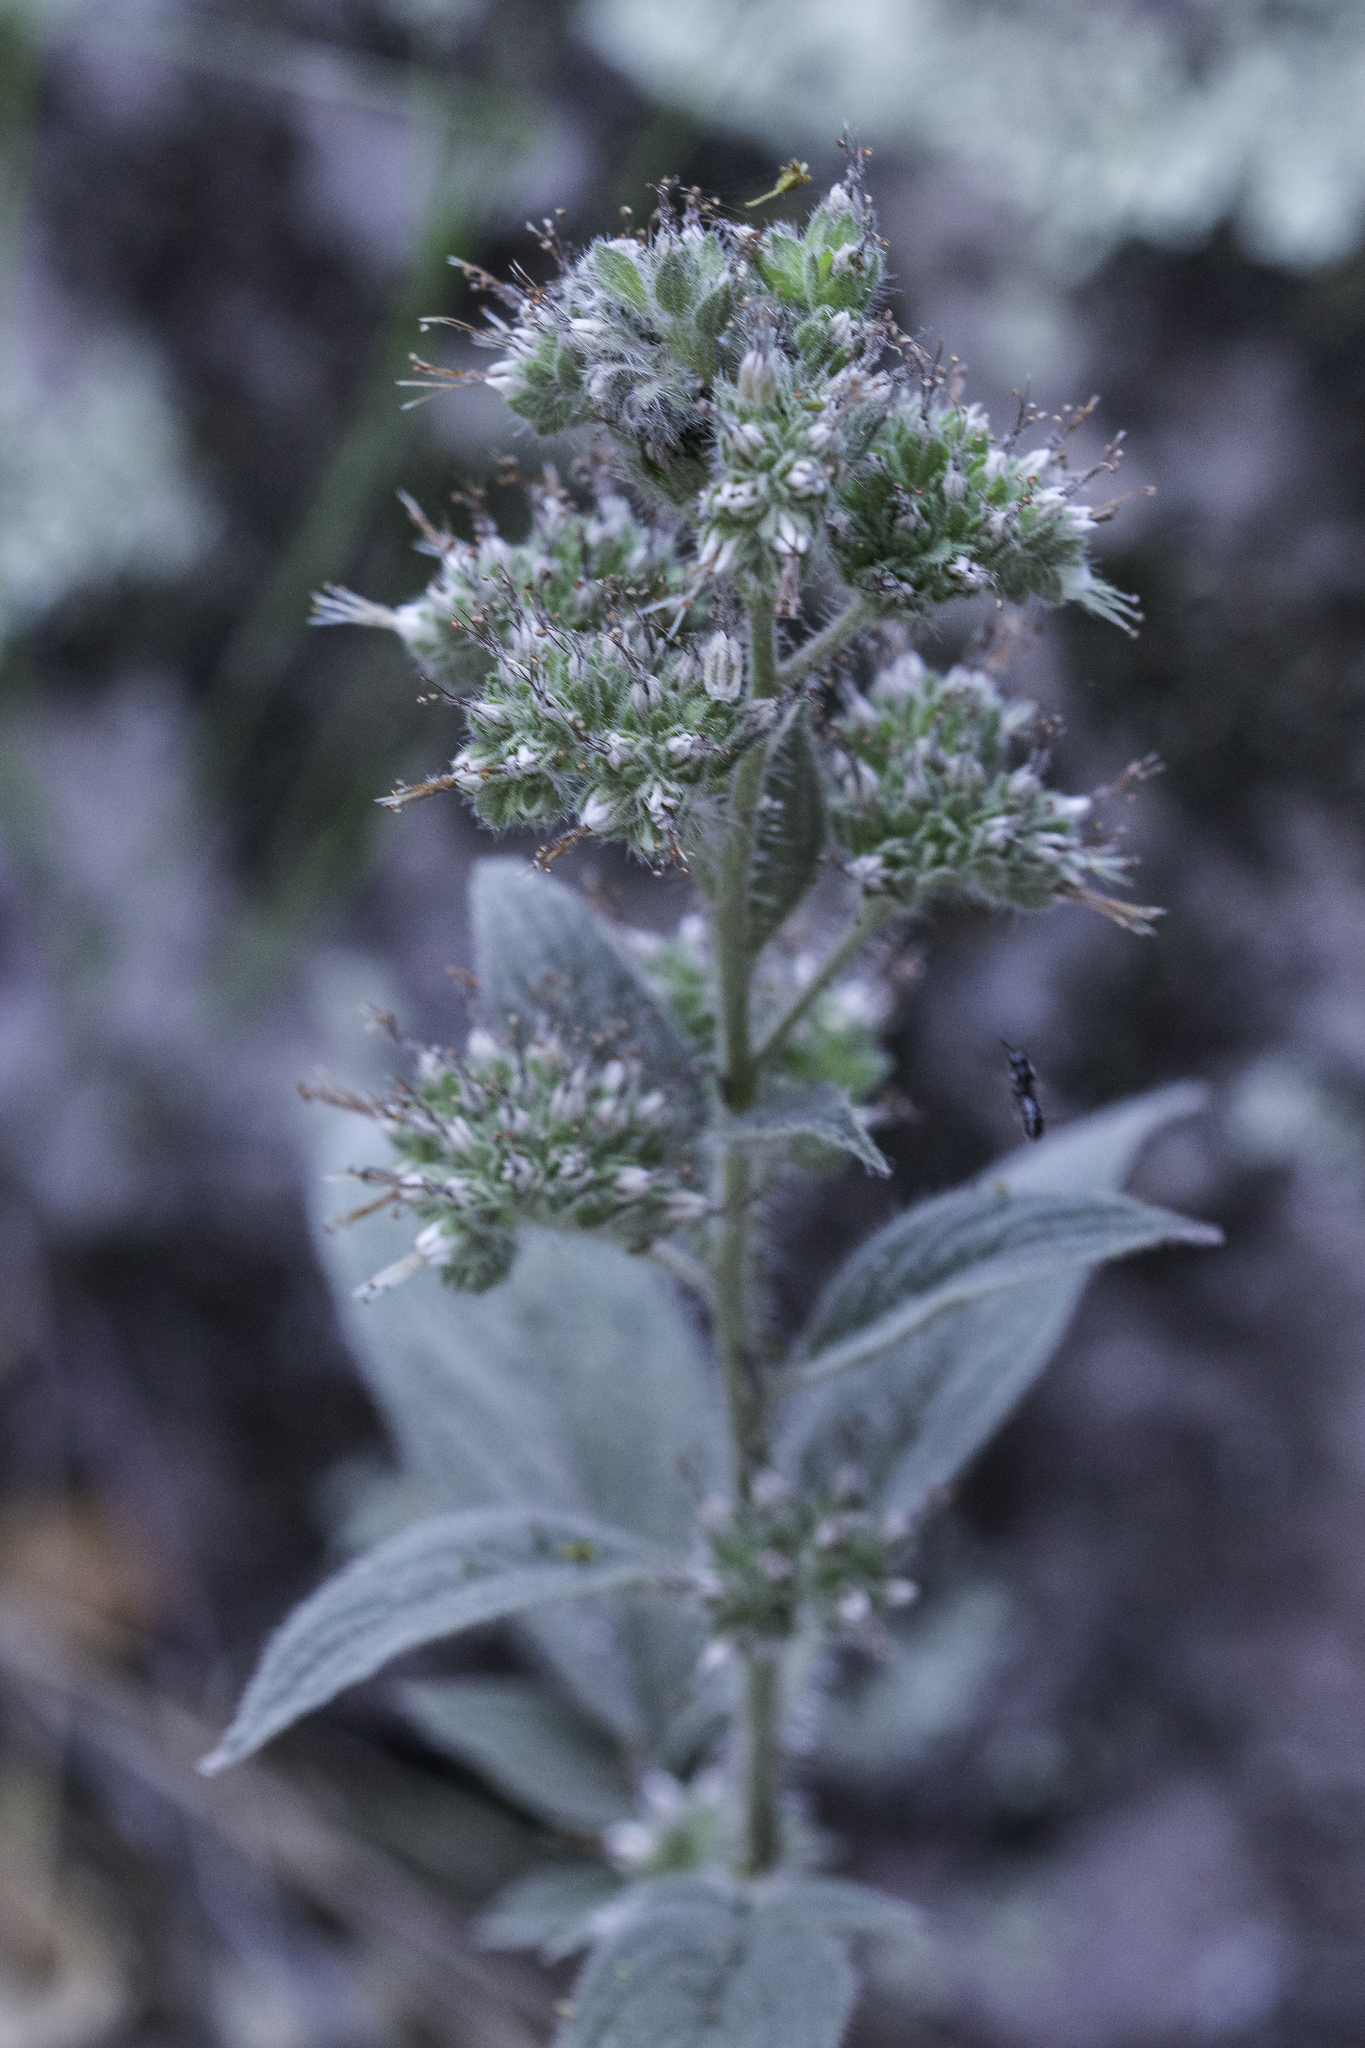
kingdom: Plantae
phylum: Tracheophyta
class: Magnoliopsida
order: Boraginales
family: Hydrophyllaceae
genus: Phacelia
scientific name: Phacelia imbricata
